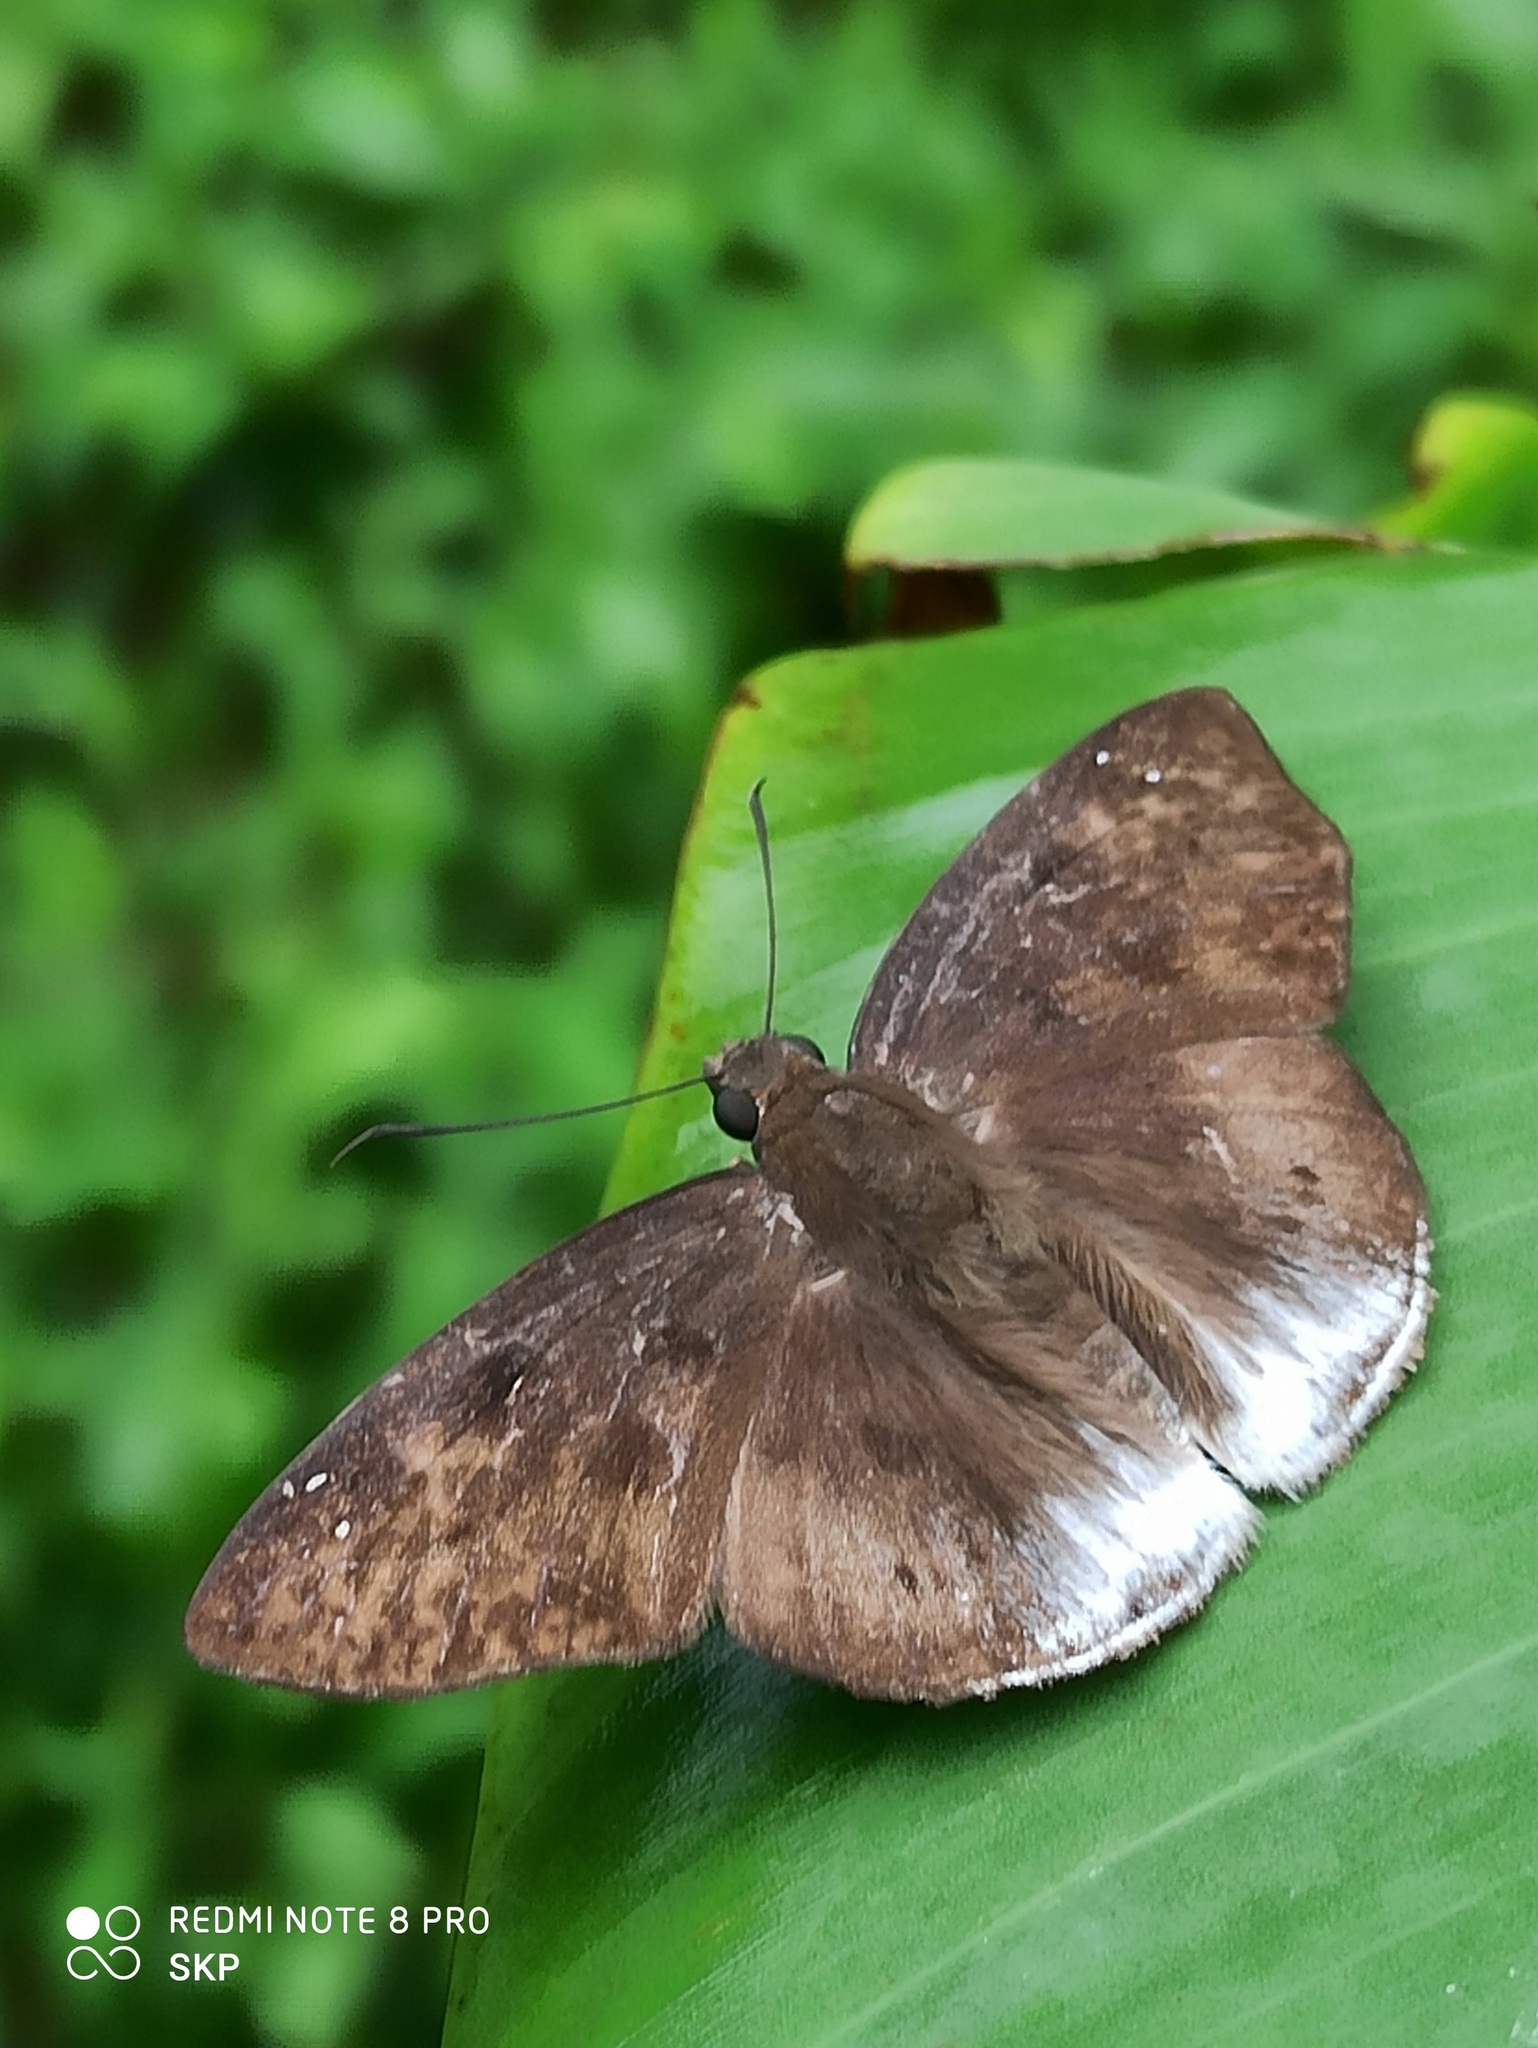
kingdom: Animalia
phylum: Arthropoda
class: Insecta
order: Lepidoptera
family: Hesperiidae
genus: Tagiades
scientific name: Tagiades gana
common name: Suffused snow flat
